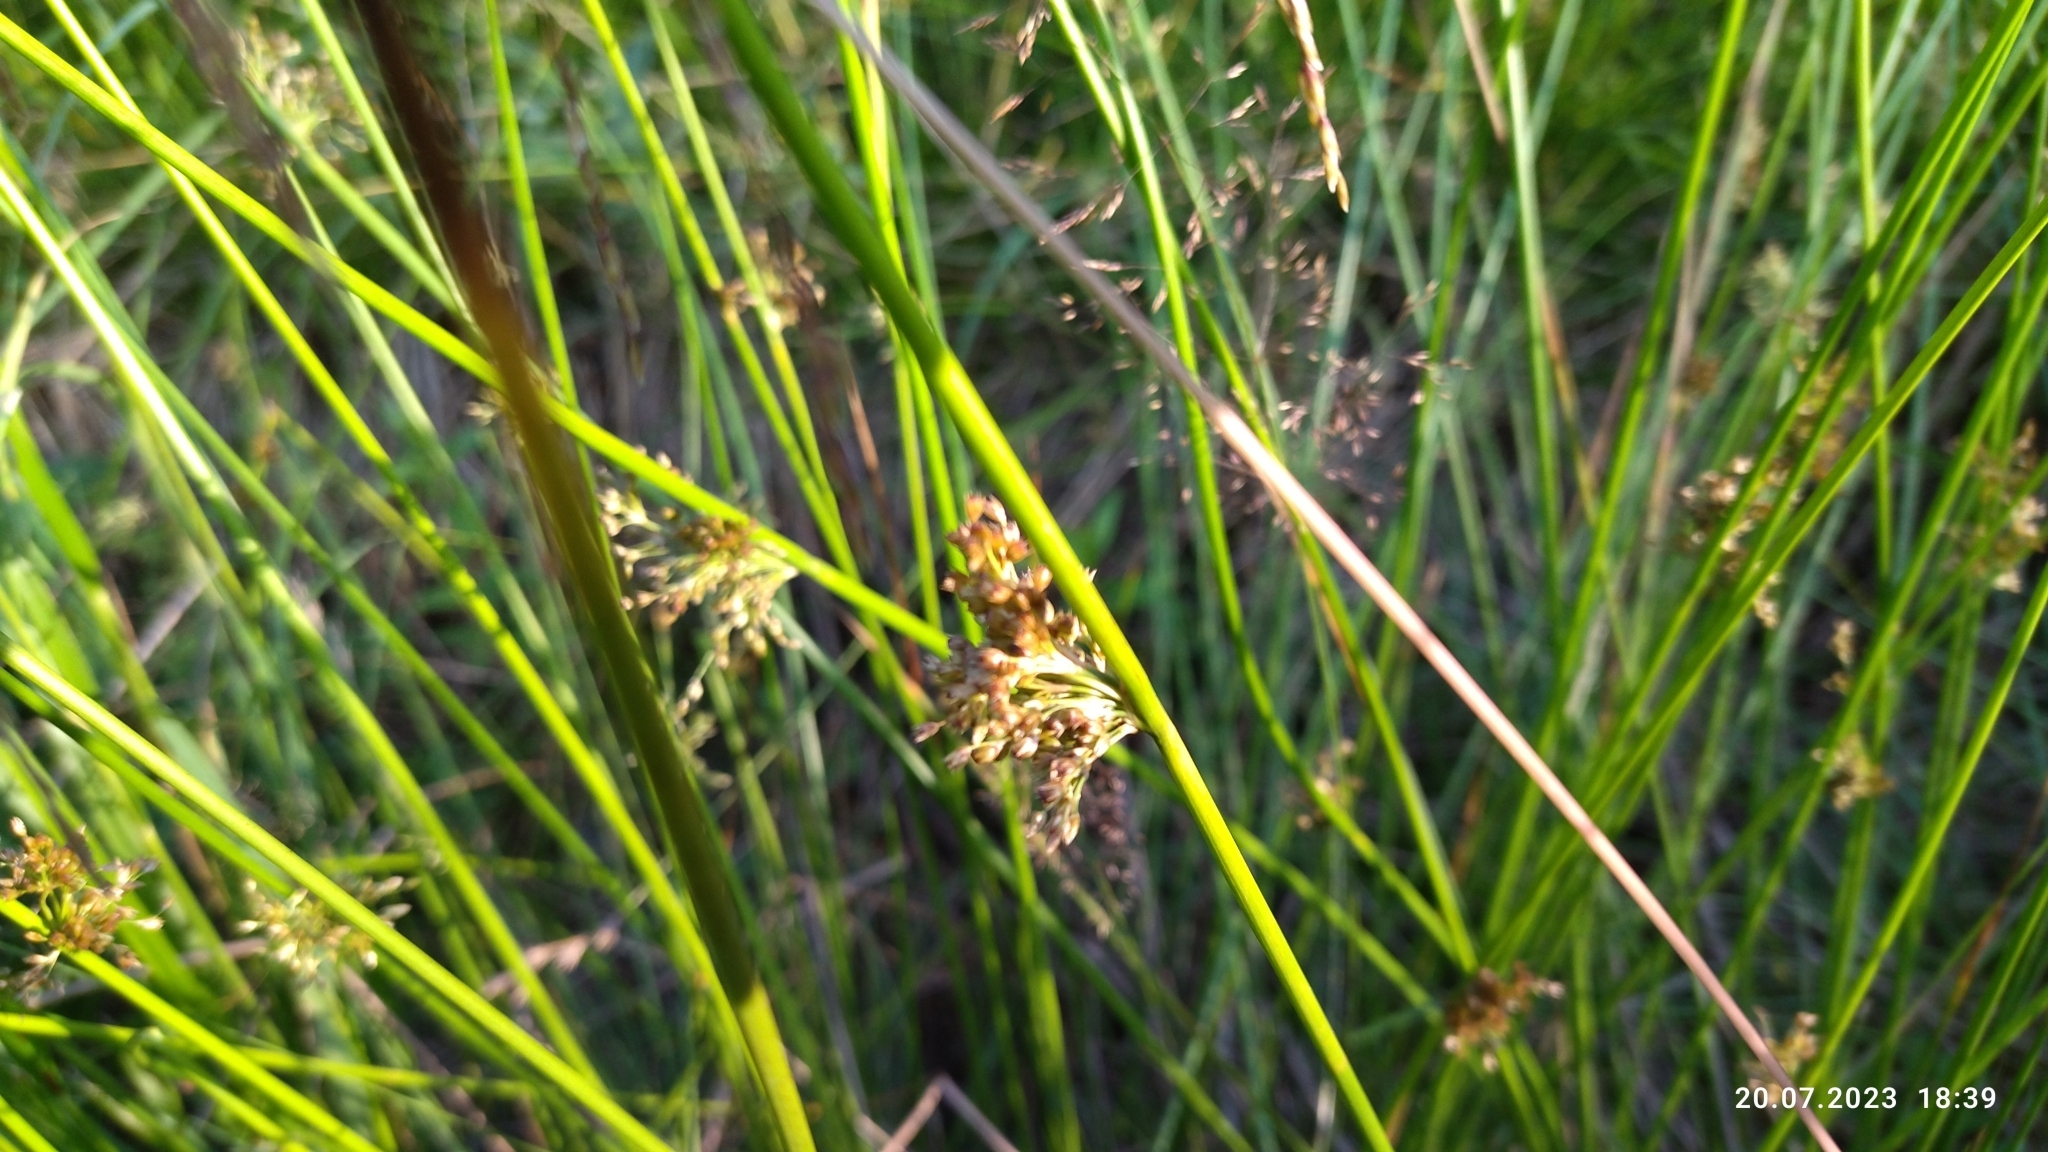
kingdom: Plantae
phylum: Tracheophyta
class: Liliopsida
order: Poales
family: Juncaceae
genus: Juncus
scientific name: Juncus effusus
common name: Soft rush
